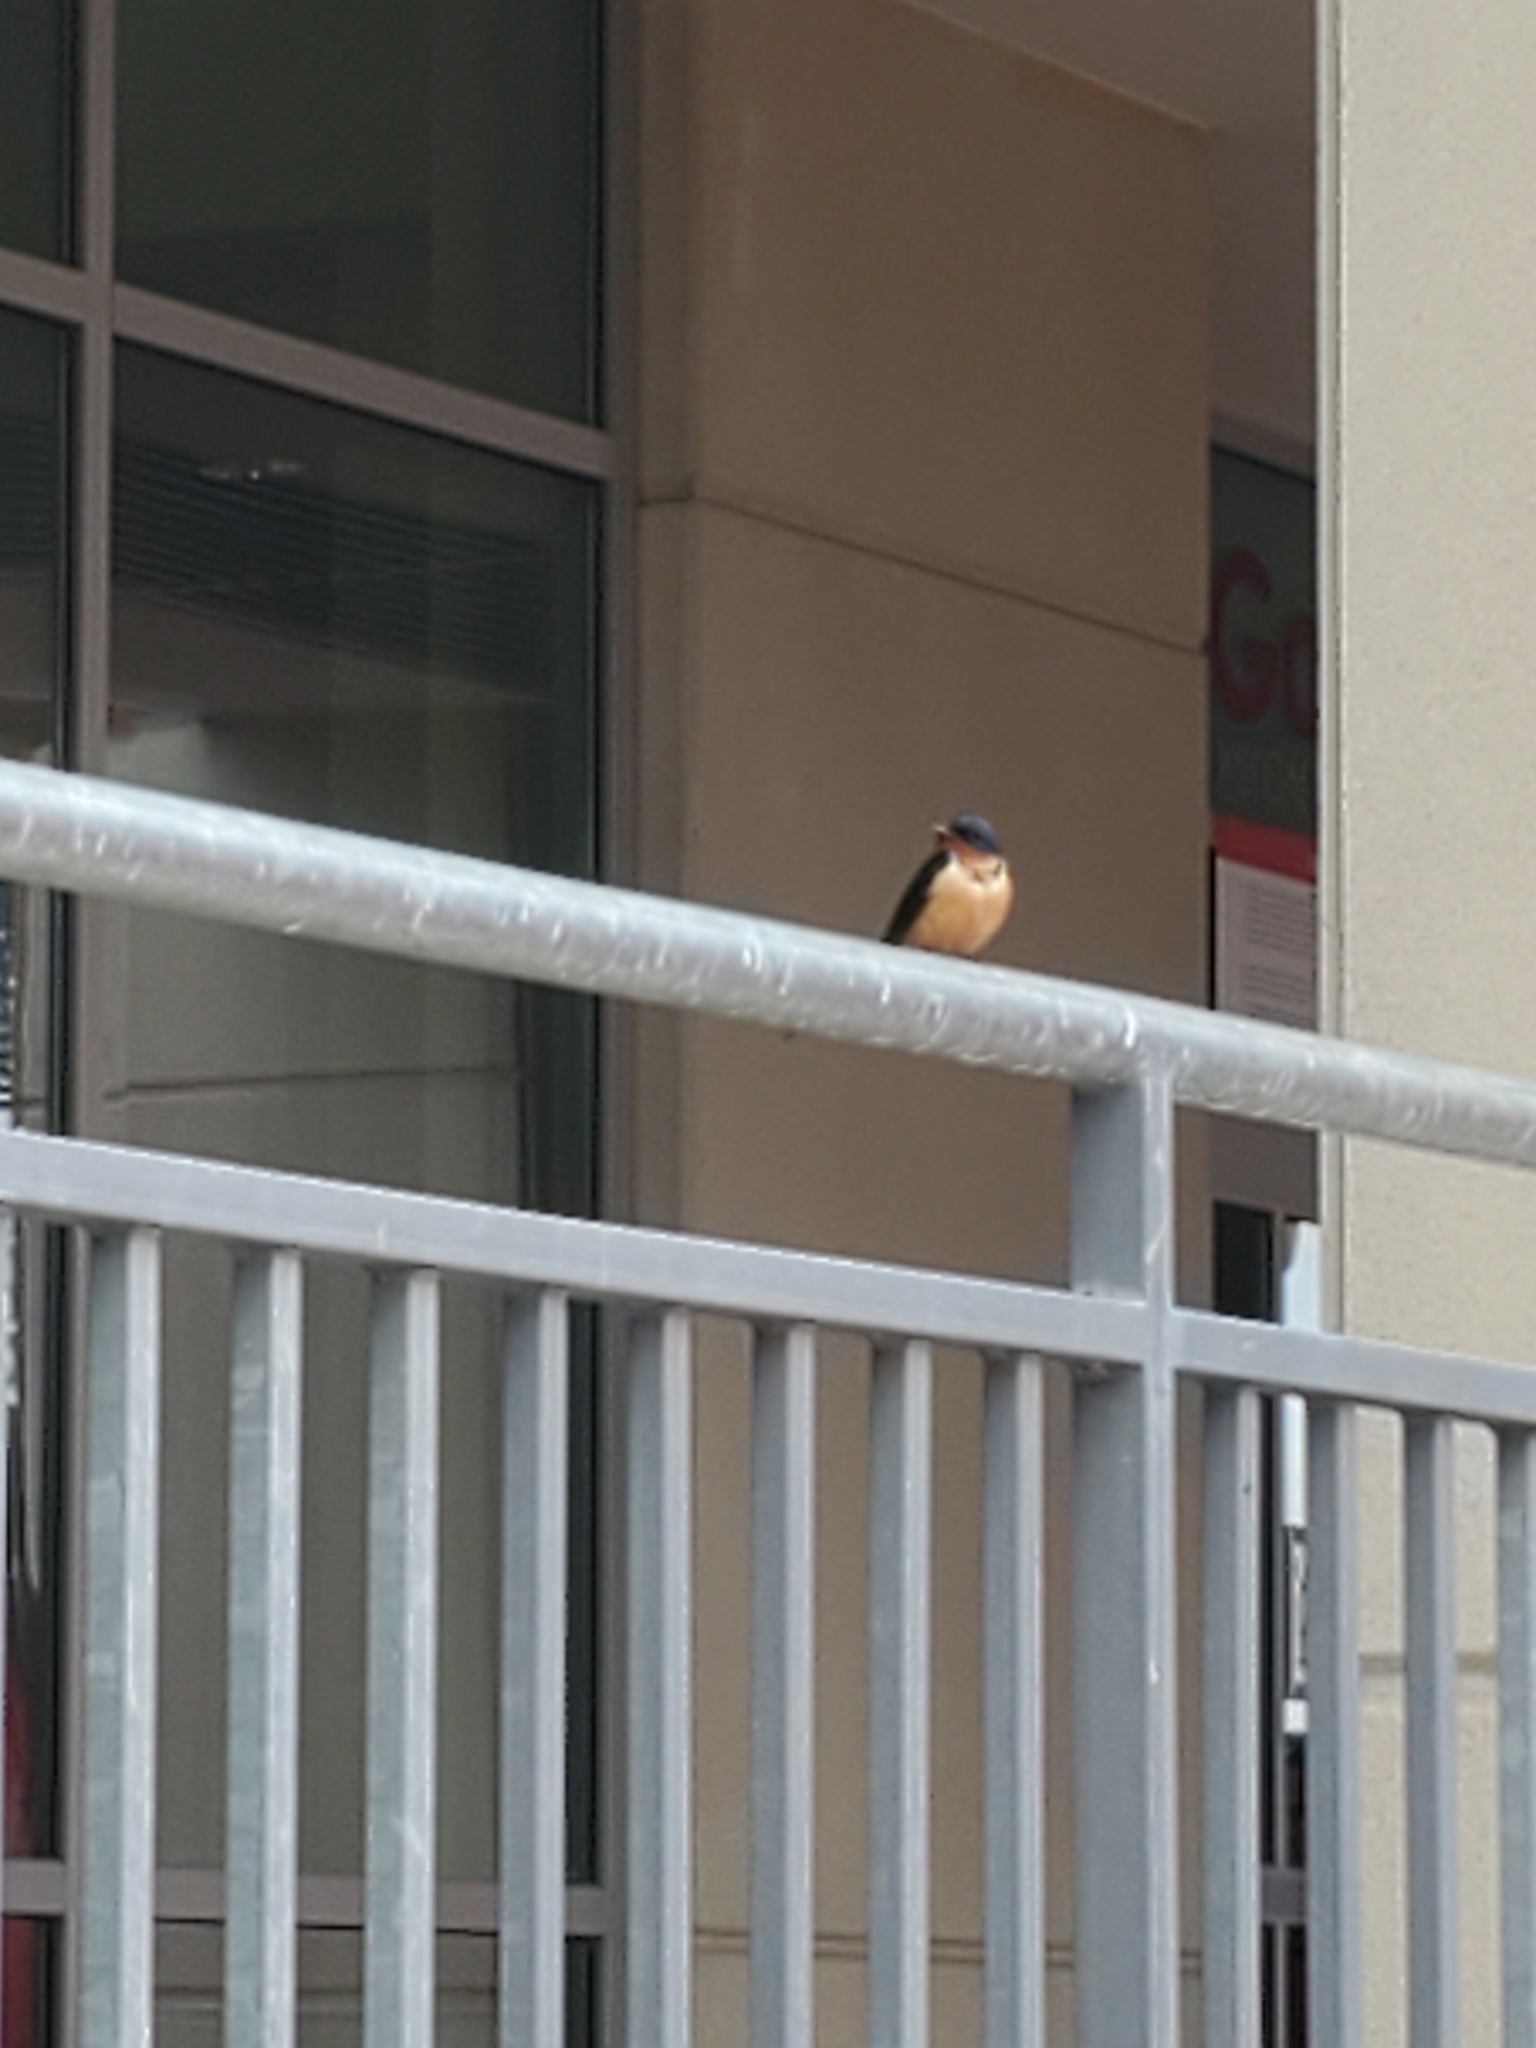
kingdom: Animalia
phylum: Chordata
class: Aves
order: Passeriformes
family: Hirundinidae
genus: Hirundo
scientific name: Hirundo rustica
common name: Barn swallow
